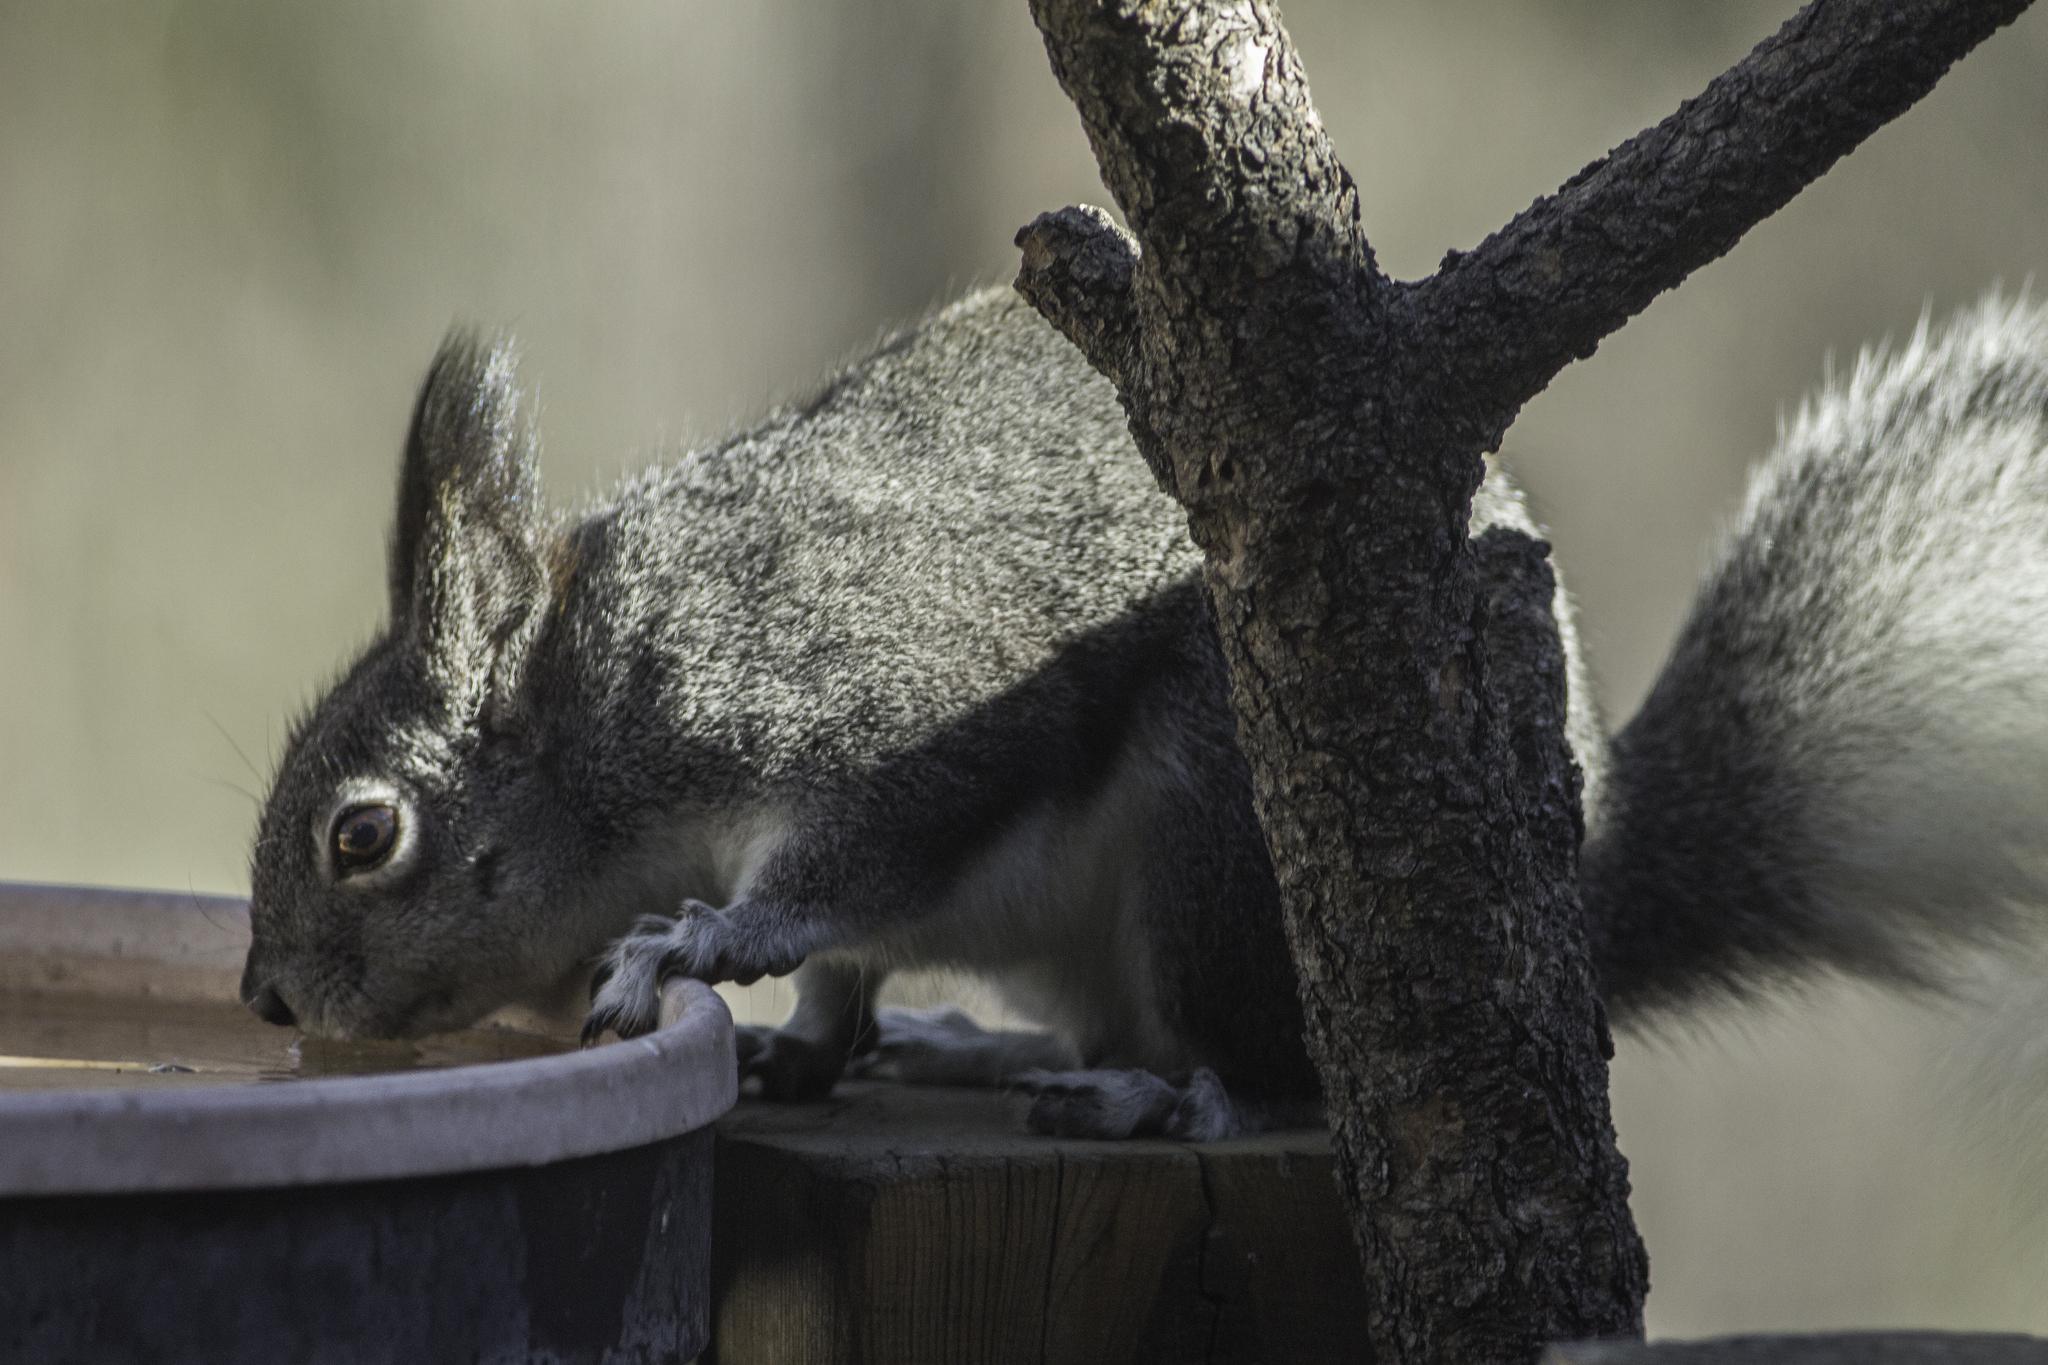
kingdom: Animalia
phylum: Chordata
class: Mammalia
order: Rodentia
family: Sciuridae
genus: Sciurus
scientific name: Sciurus aberti
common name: Abert's squirrel
